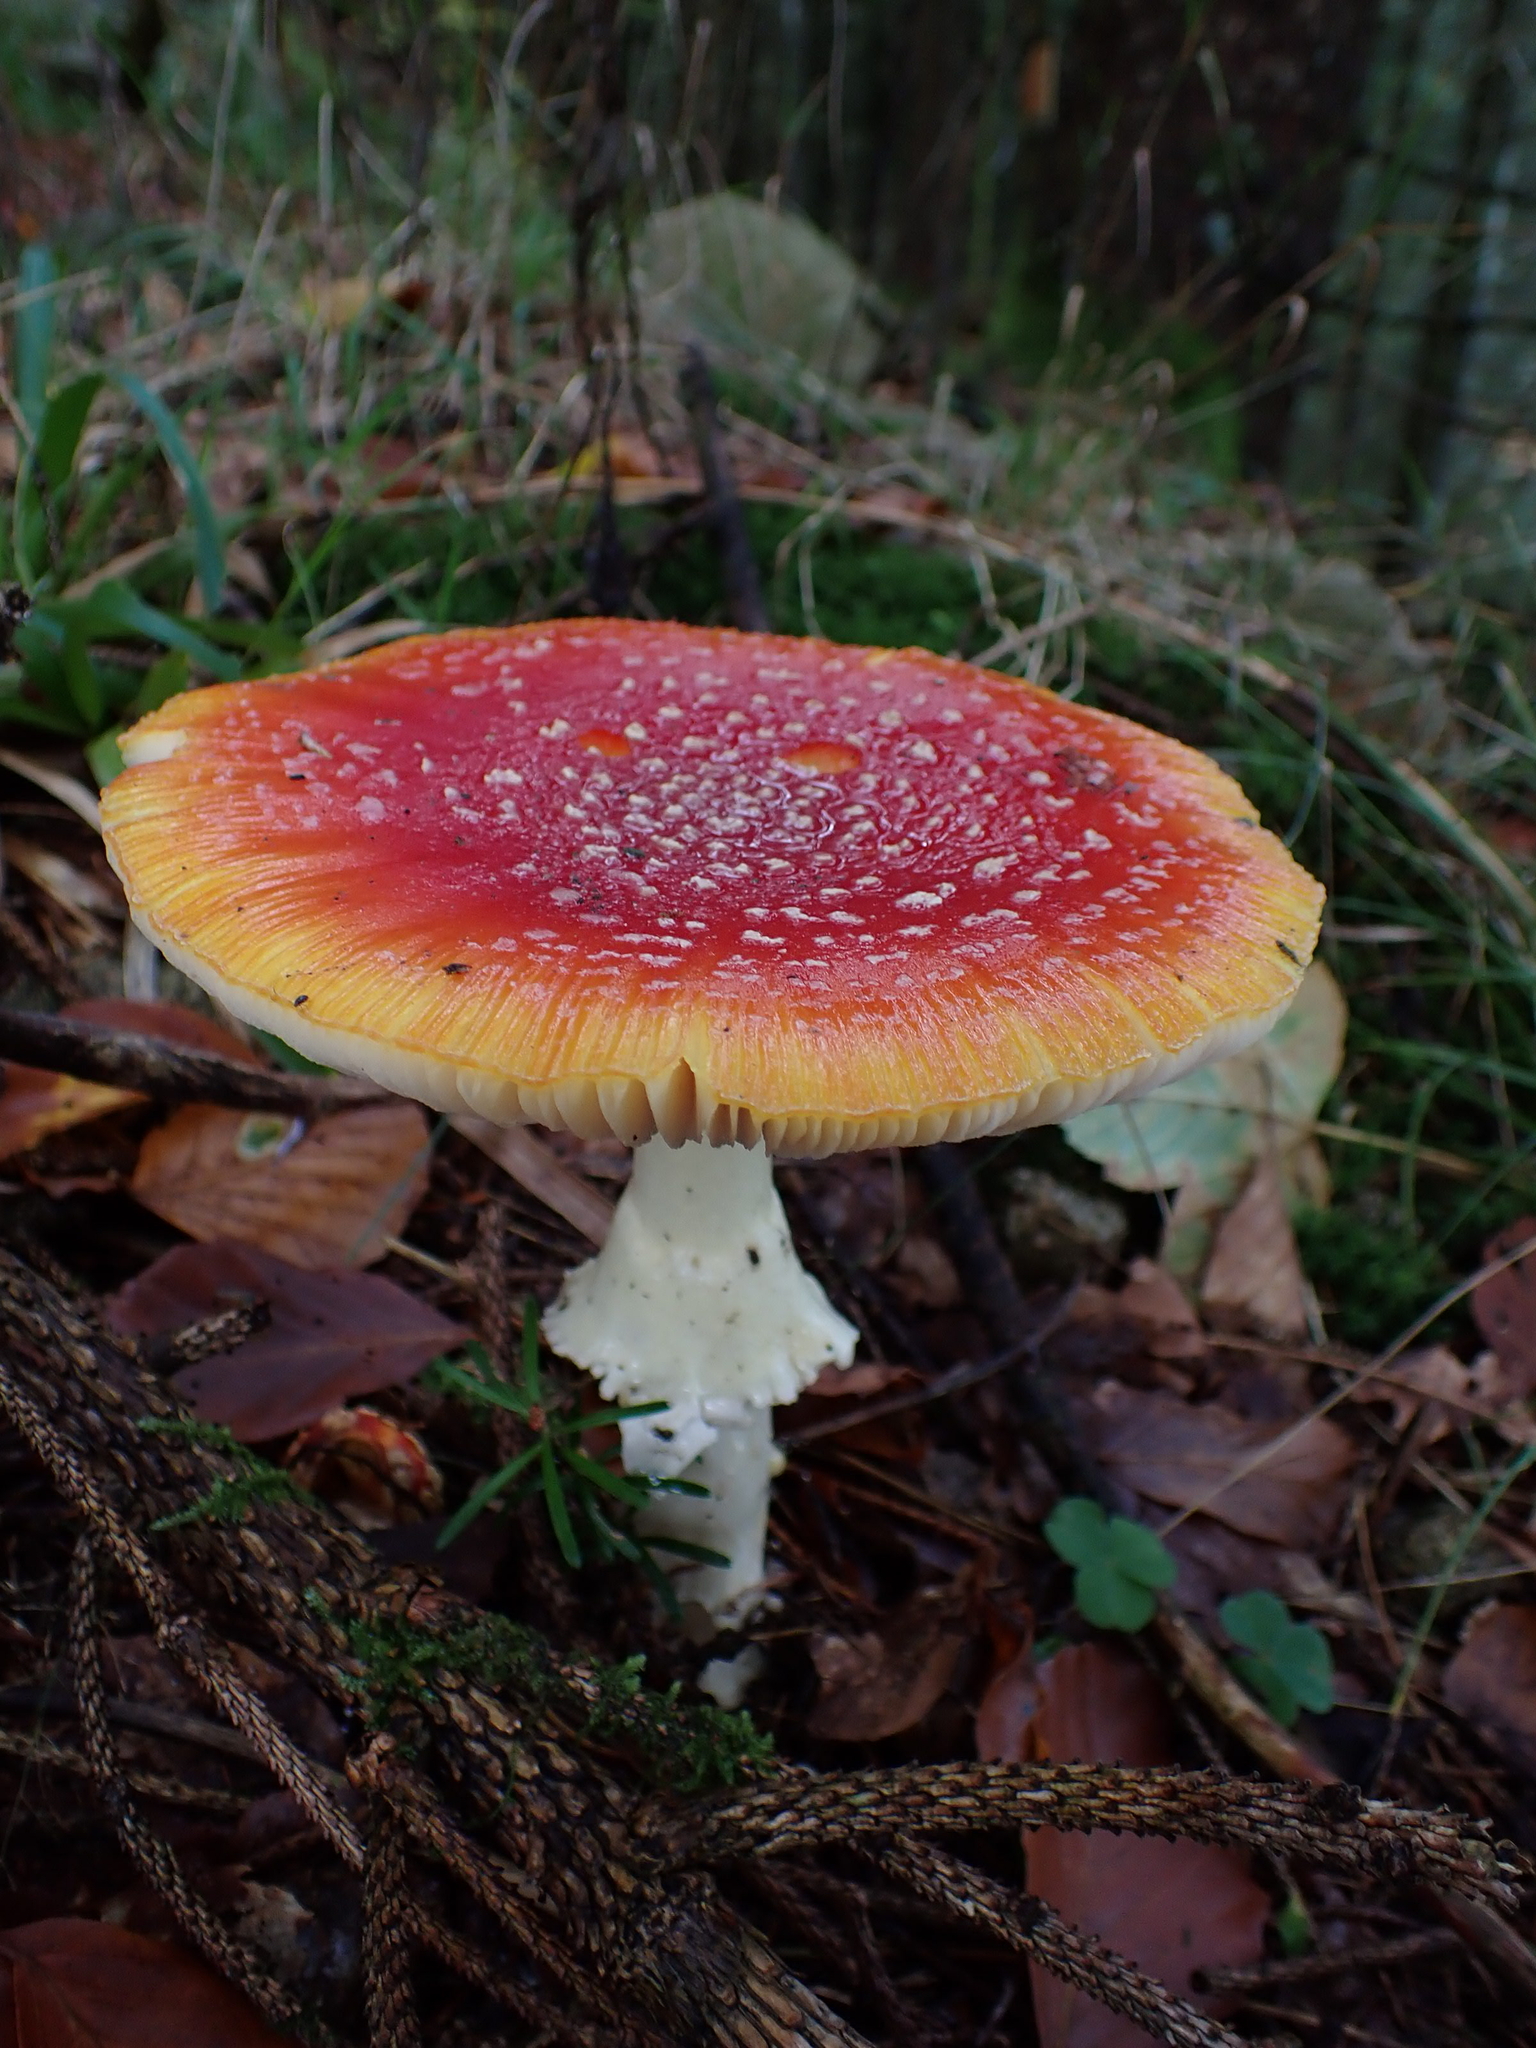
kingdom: Fungi
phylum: Basidiomycota
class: Agaricomycetes
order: Agaricales
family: Amanitaceae
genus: Amanita
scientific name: Amanita muscaria
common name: Fly agaric
